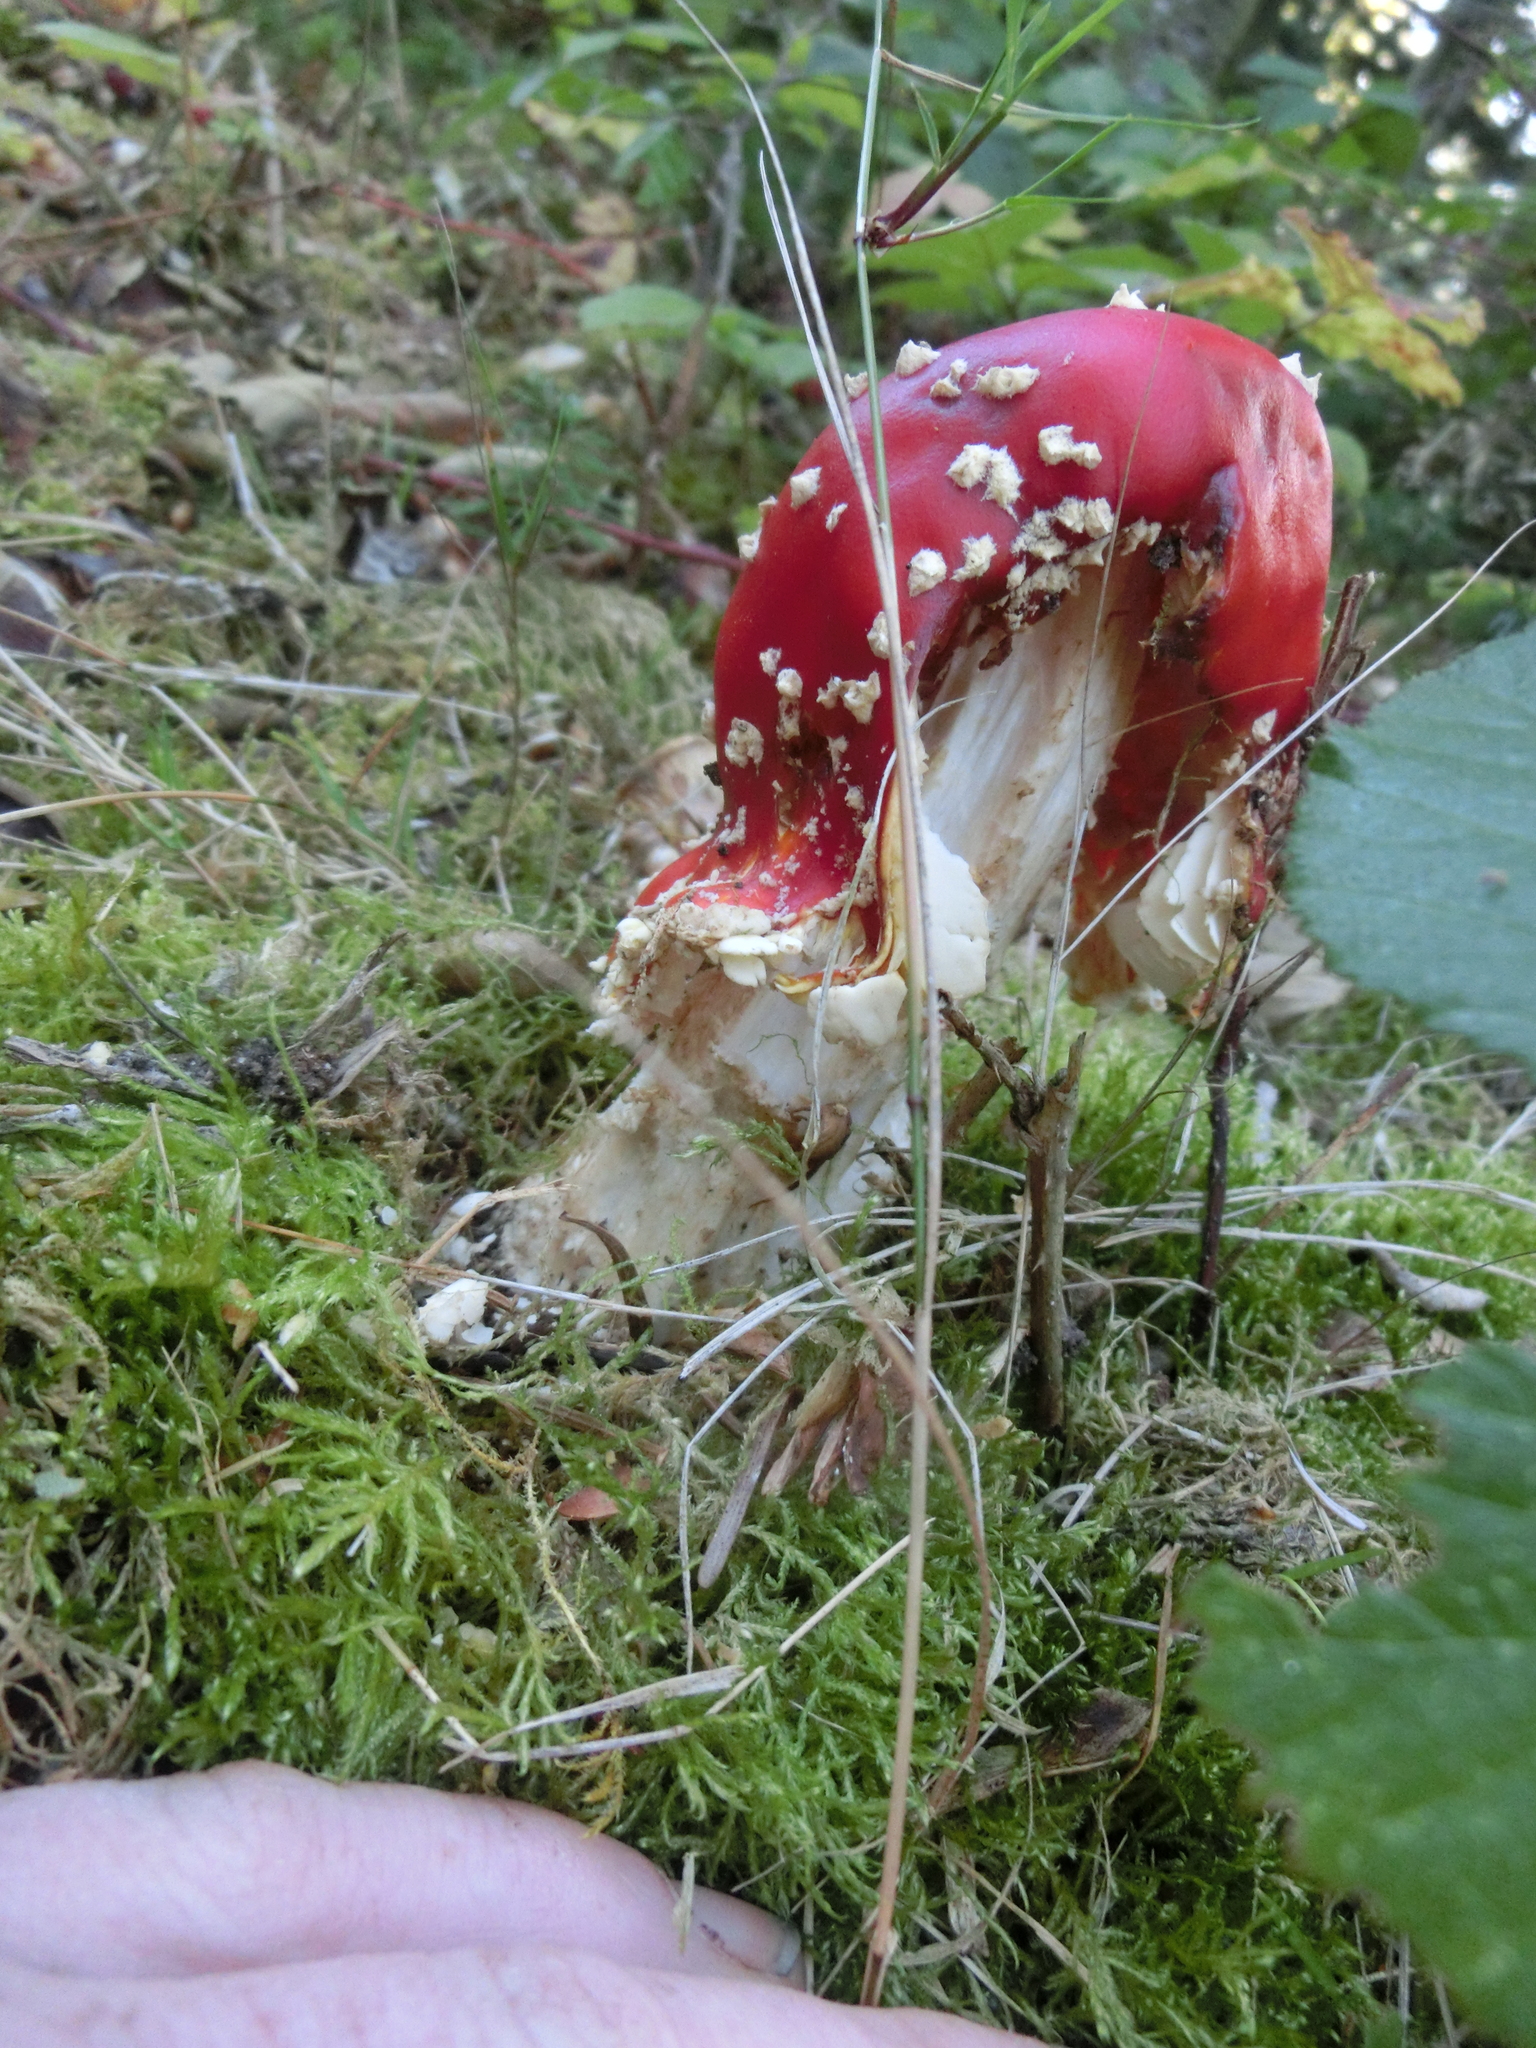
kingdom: Fungi
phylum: Basidiomycota
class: Agaricomycetes
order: Agaricales
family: Amanitaceae
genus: Amanita
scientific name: Amanita muscaria
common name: Fly agaric
